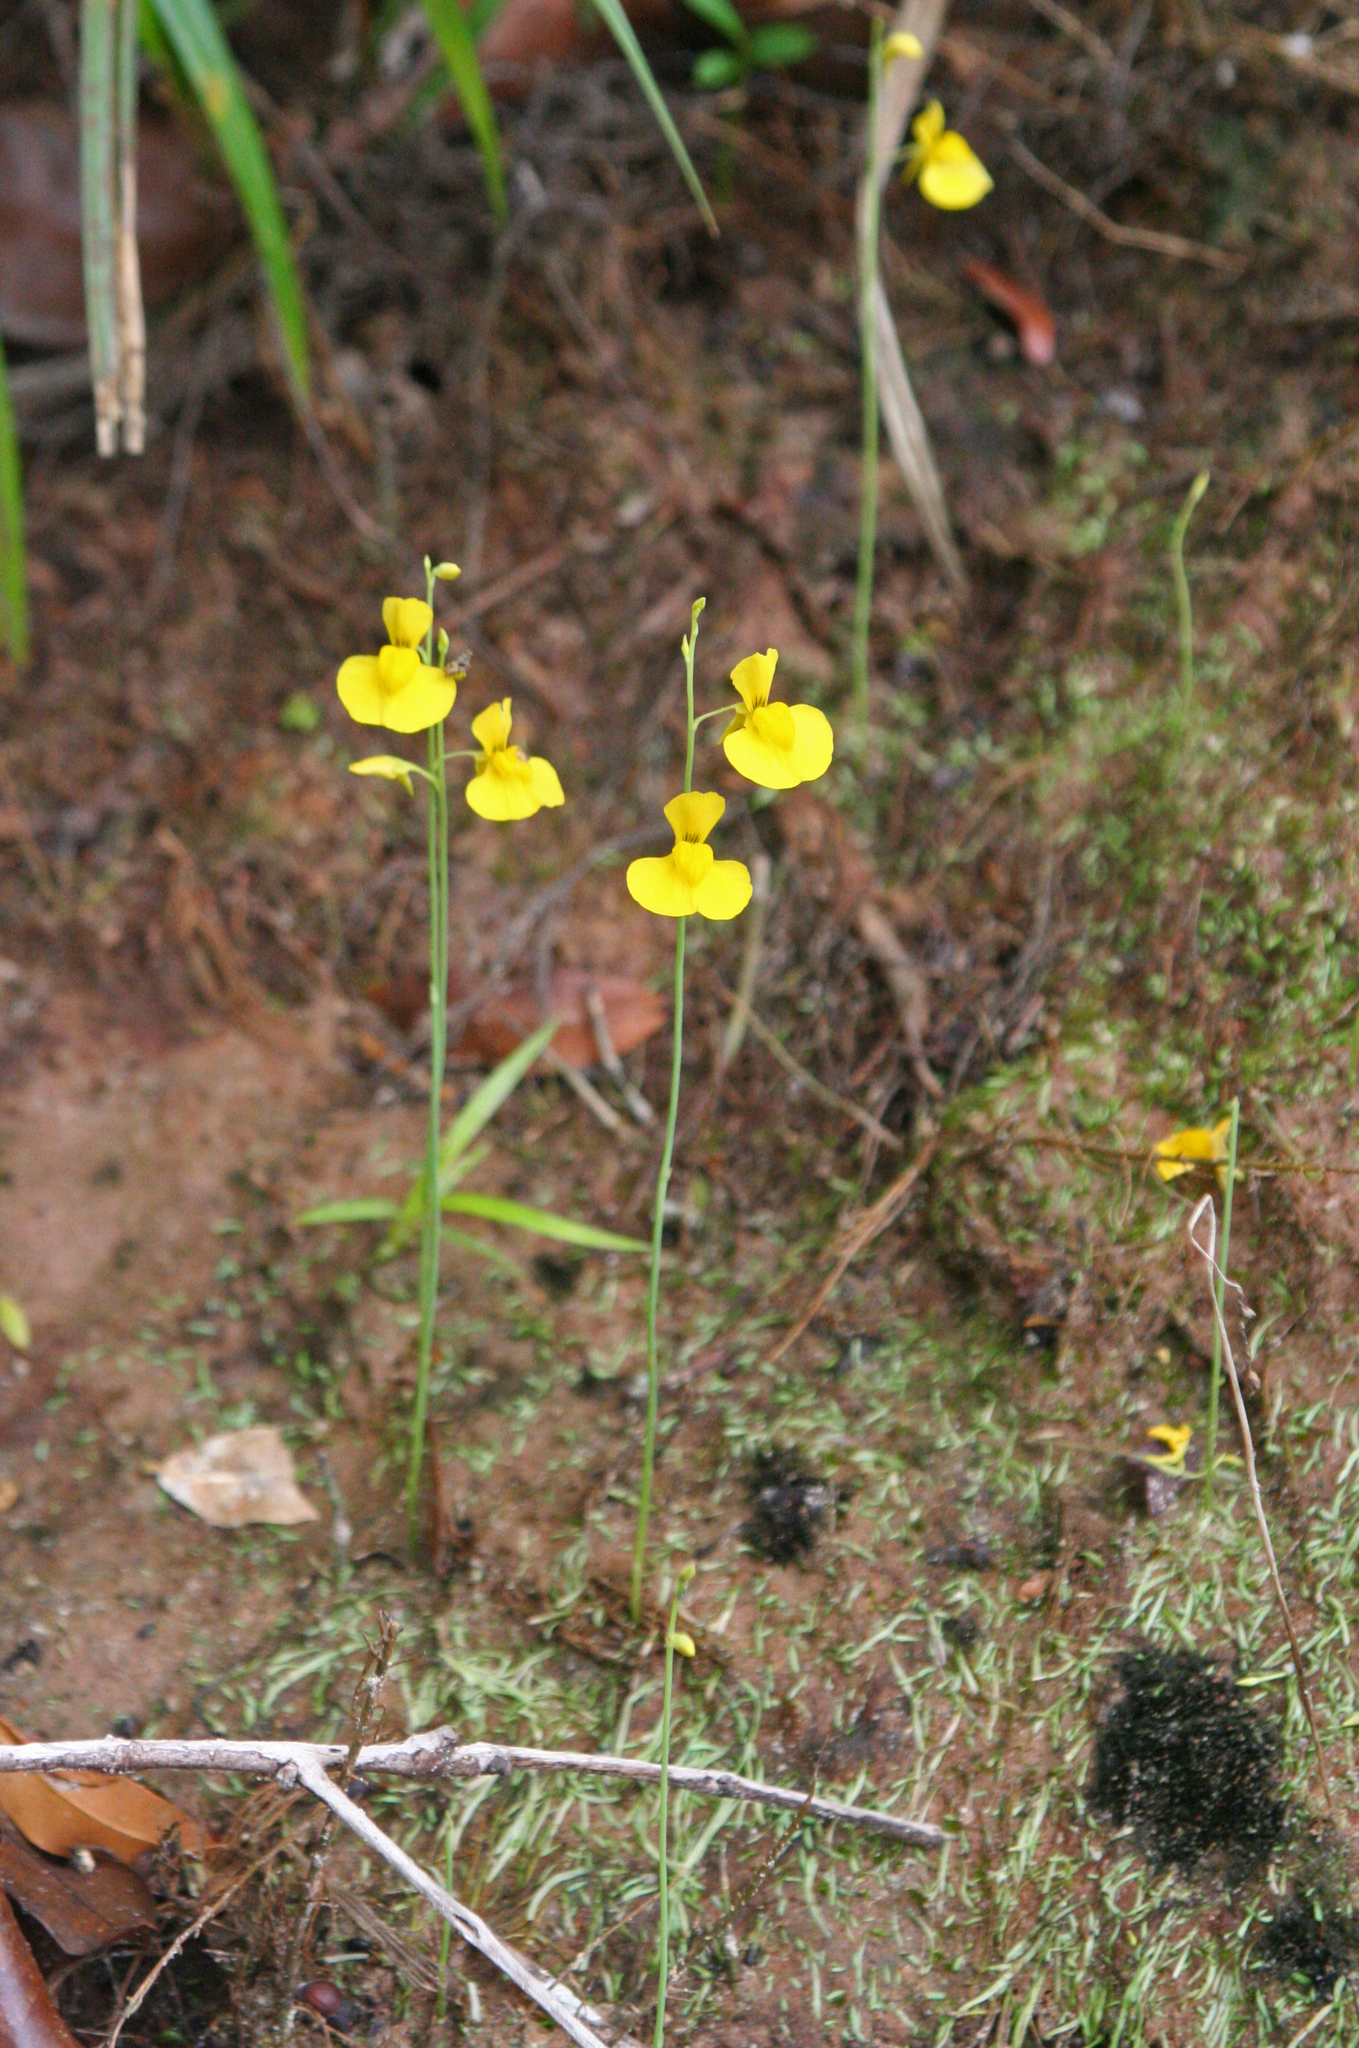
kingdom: Plantae
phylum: Tracheophyta
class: Magnoliopsida
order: Lamiales
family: Lentibulariaceae
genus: Utricularia
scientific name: Utricularia odorata
